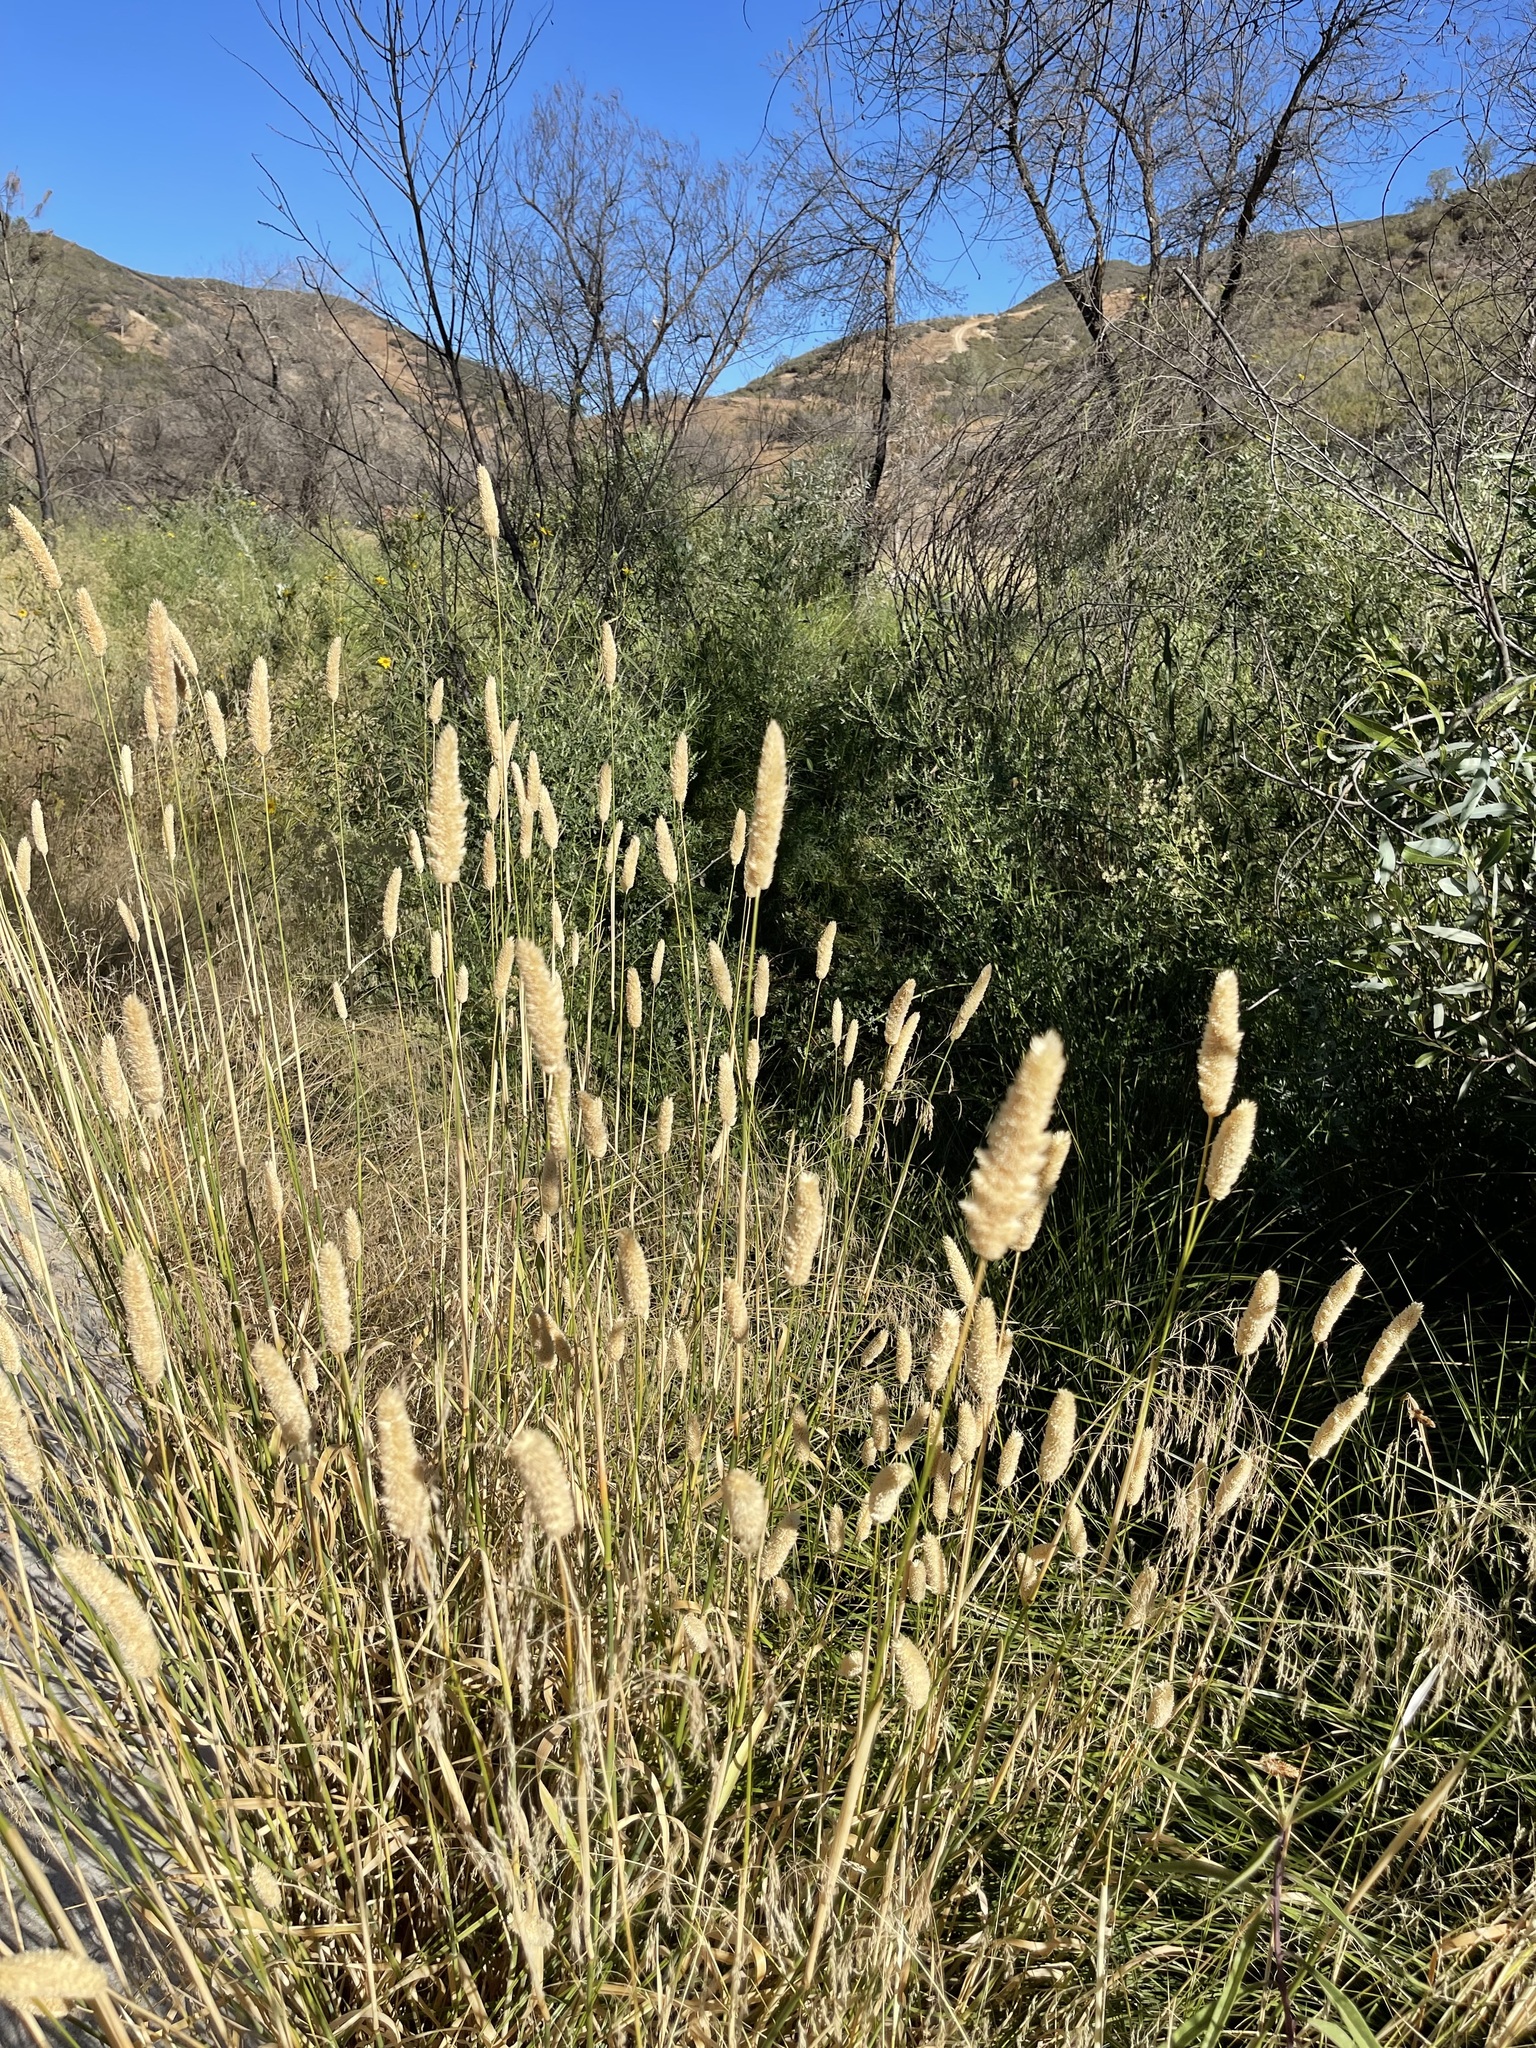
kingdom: Plantae
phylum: Tracheophyta
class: Liliopsida
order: Poales
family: Poaceae
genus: Phalaris
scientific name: Phalaris aquatica
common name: Bulbous canary-grass
